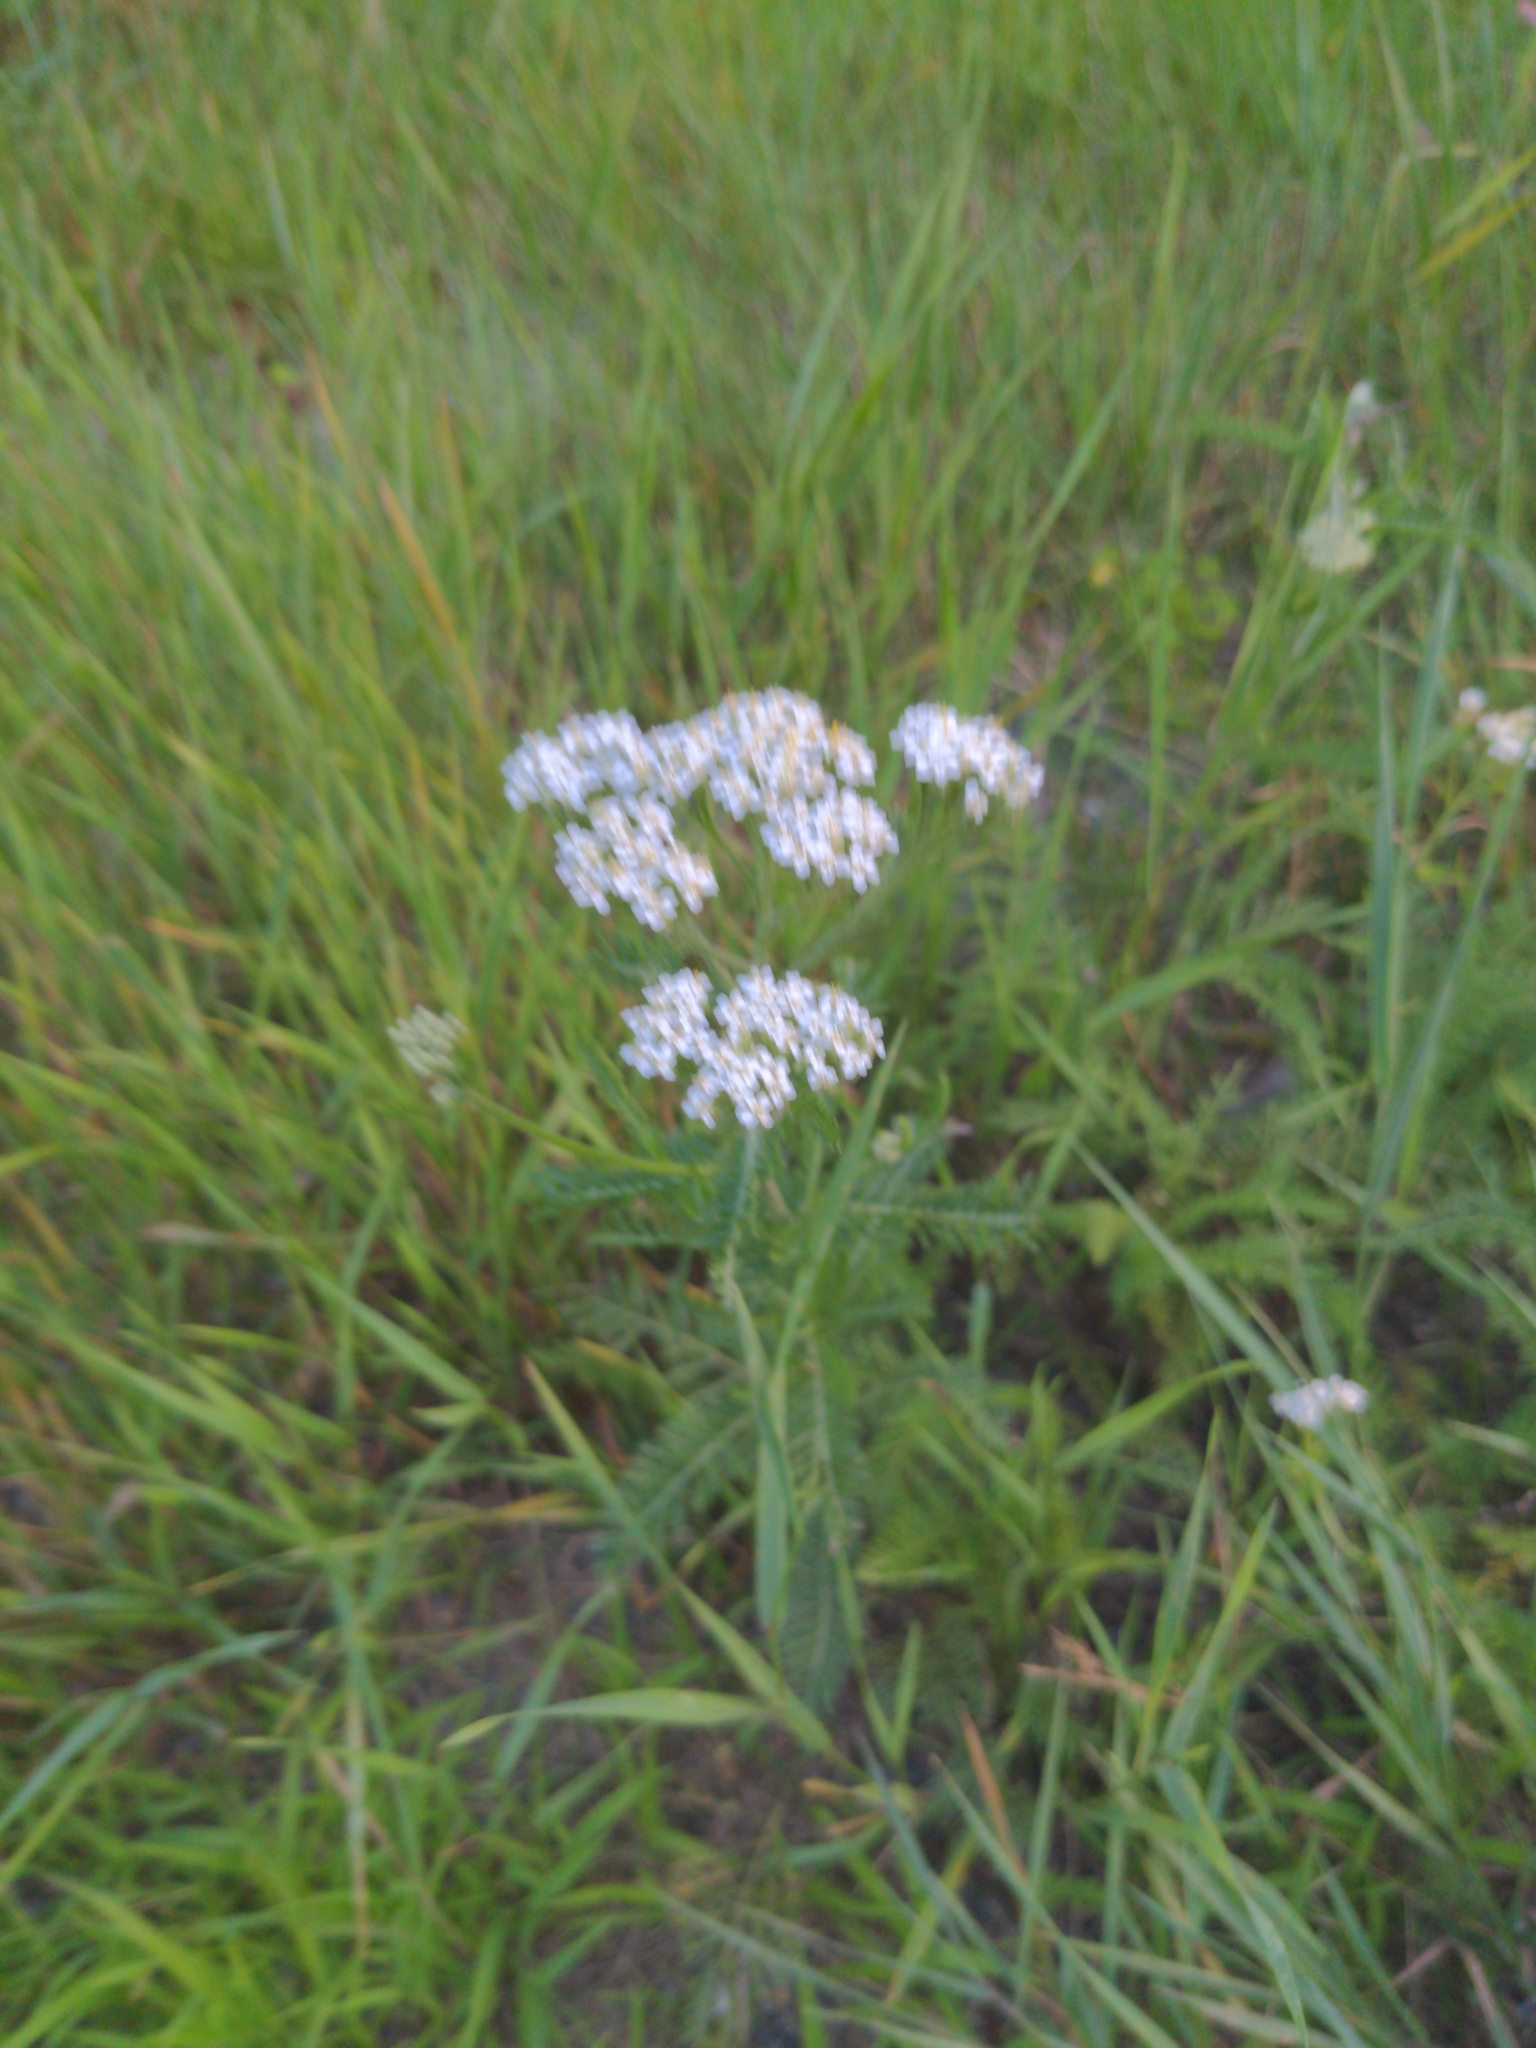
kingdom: Plantae
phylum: Tracheophyta
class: Magnoliopsida
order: Asterales
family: Asteraceae
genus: Achillea
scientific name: Achillea millefolium
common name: Yarrow
